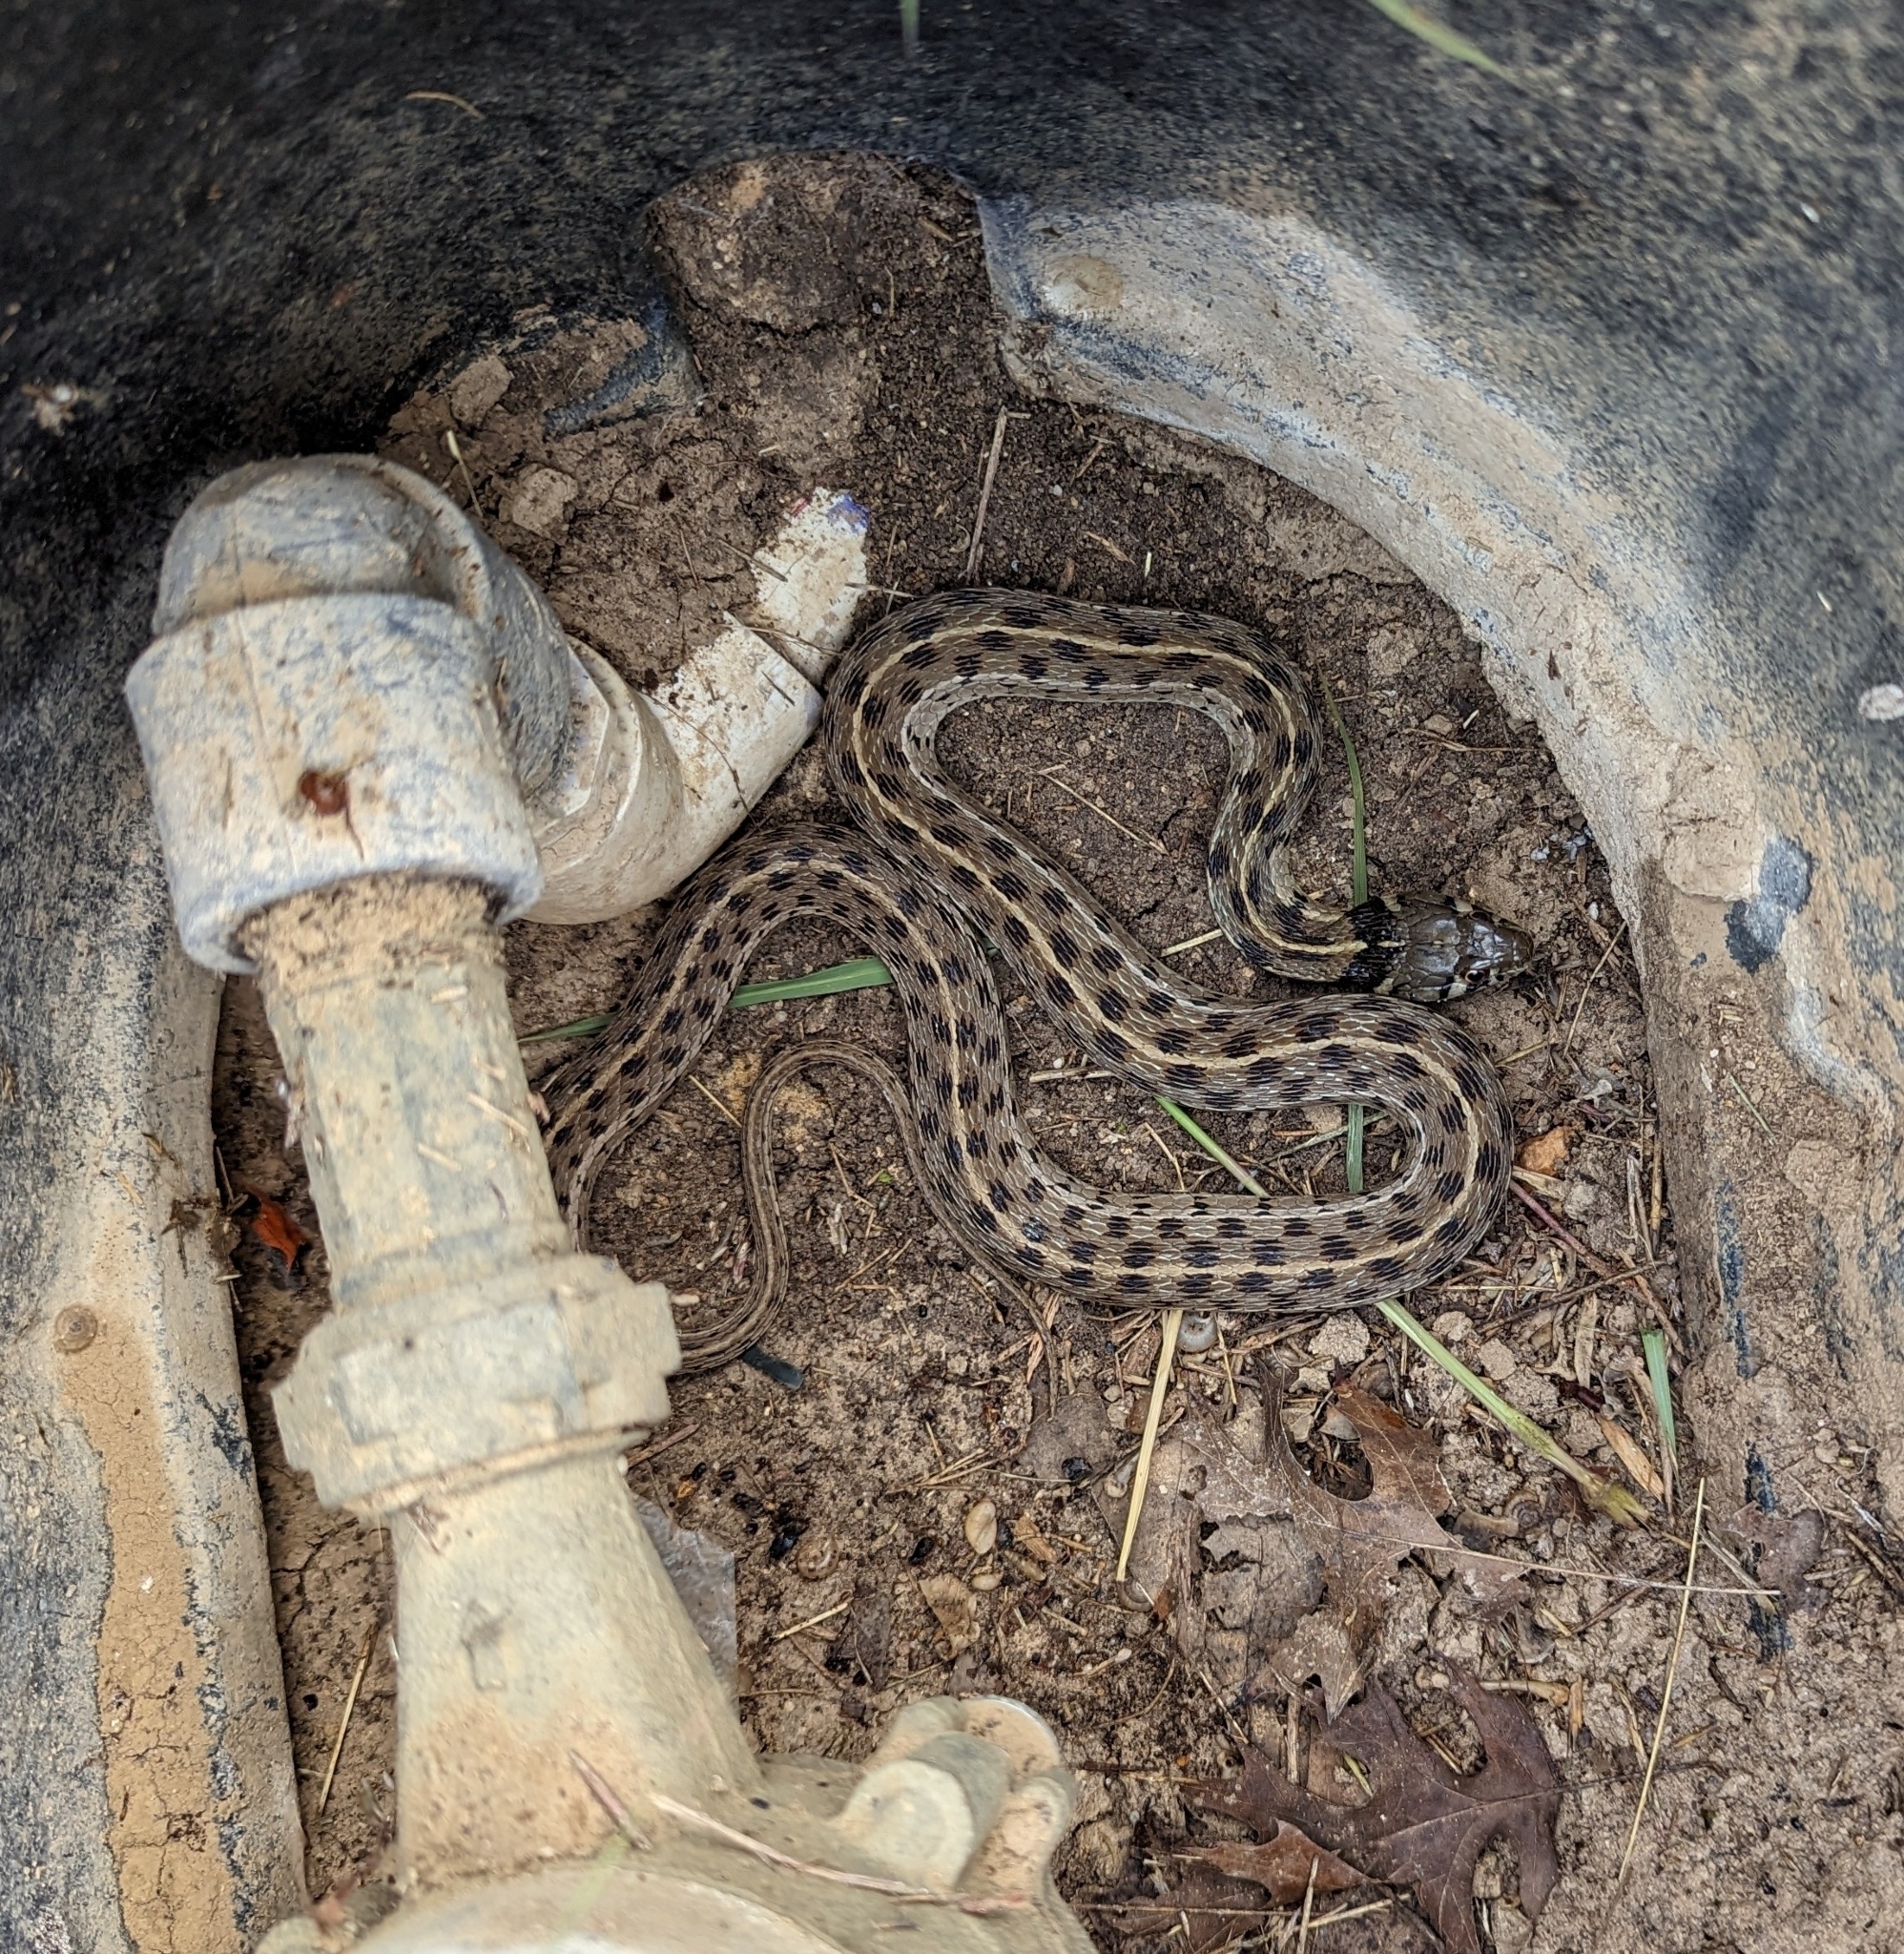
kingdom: Animalia
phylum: Chordata
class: Squamata
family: Colubridae
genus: Thamnophis
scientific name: Thamnophis marcianus
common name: Checkered garter snake
